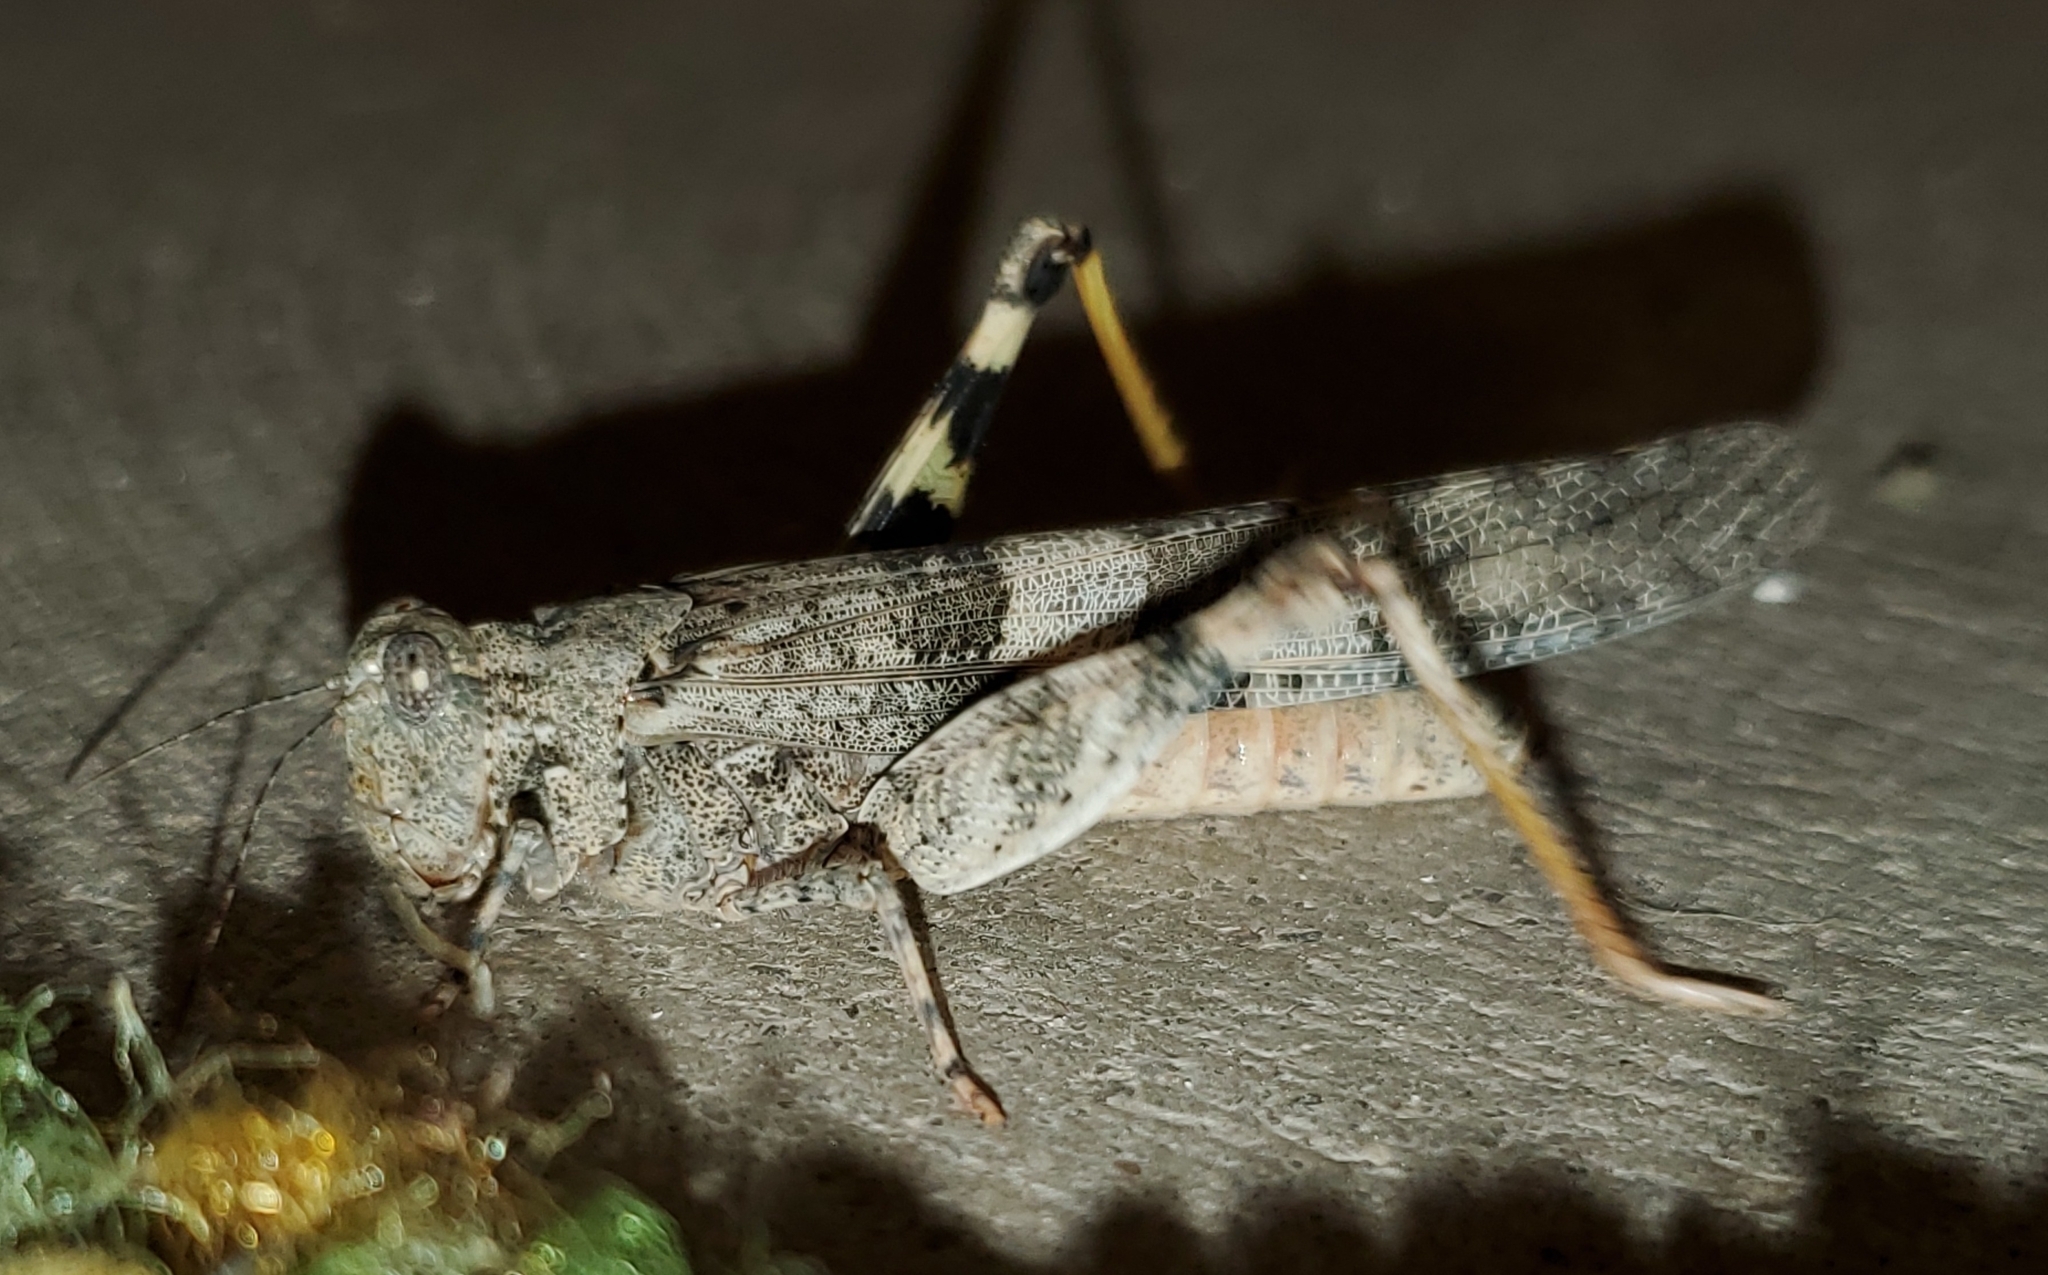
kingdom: Animalia
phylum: Arthropoda
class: Insecta
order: Orthoptera
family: Acrididae
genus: Trimerotropis
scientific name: Trimerotropis pallidipennis
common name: Pallid-winged grasshopper
